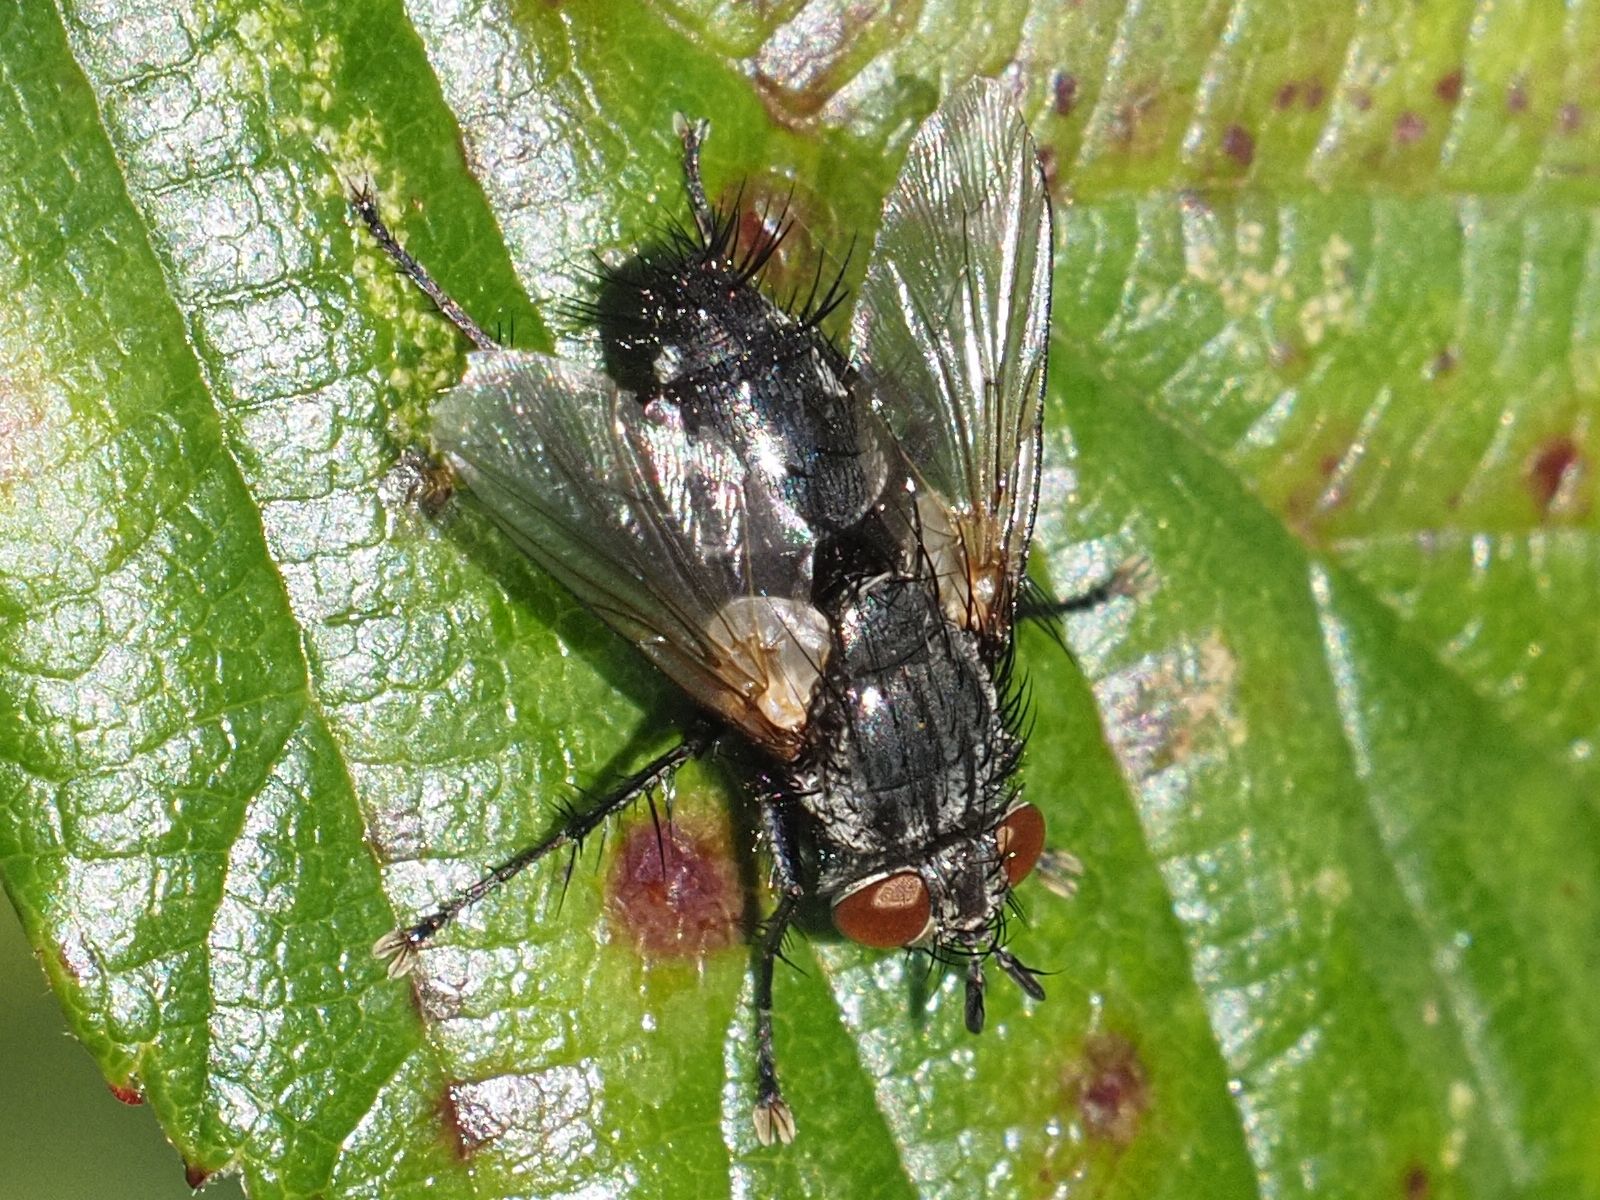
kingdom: Animalia
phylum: Arthropoda
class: Insecta
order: Diptera
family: Tachinidae
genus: Voria
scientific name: Voria ruralis
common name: Parasitic fly
